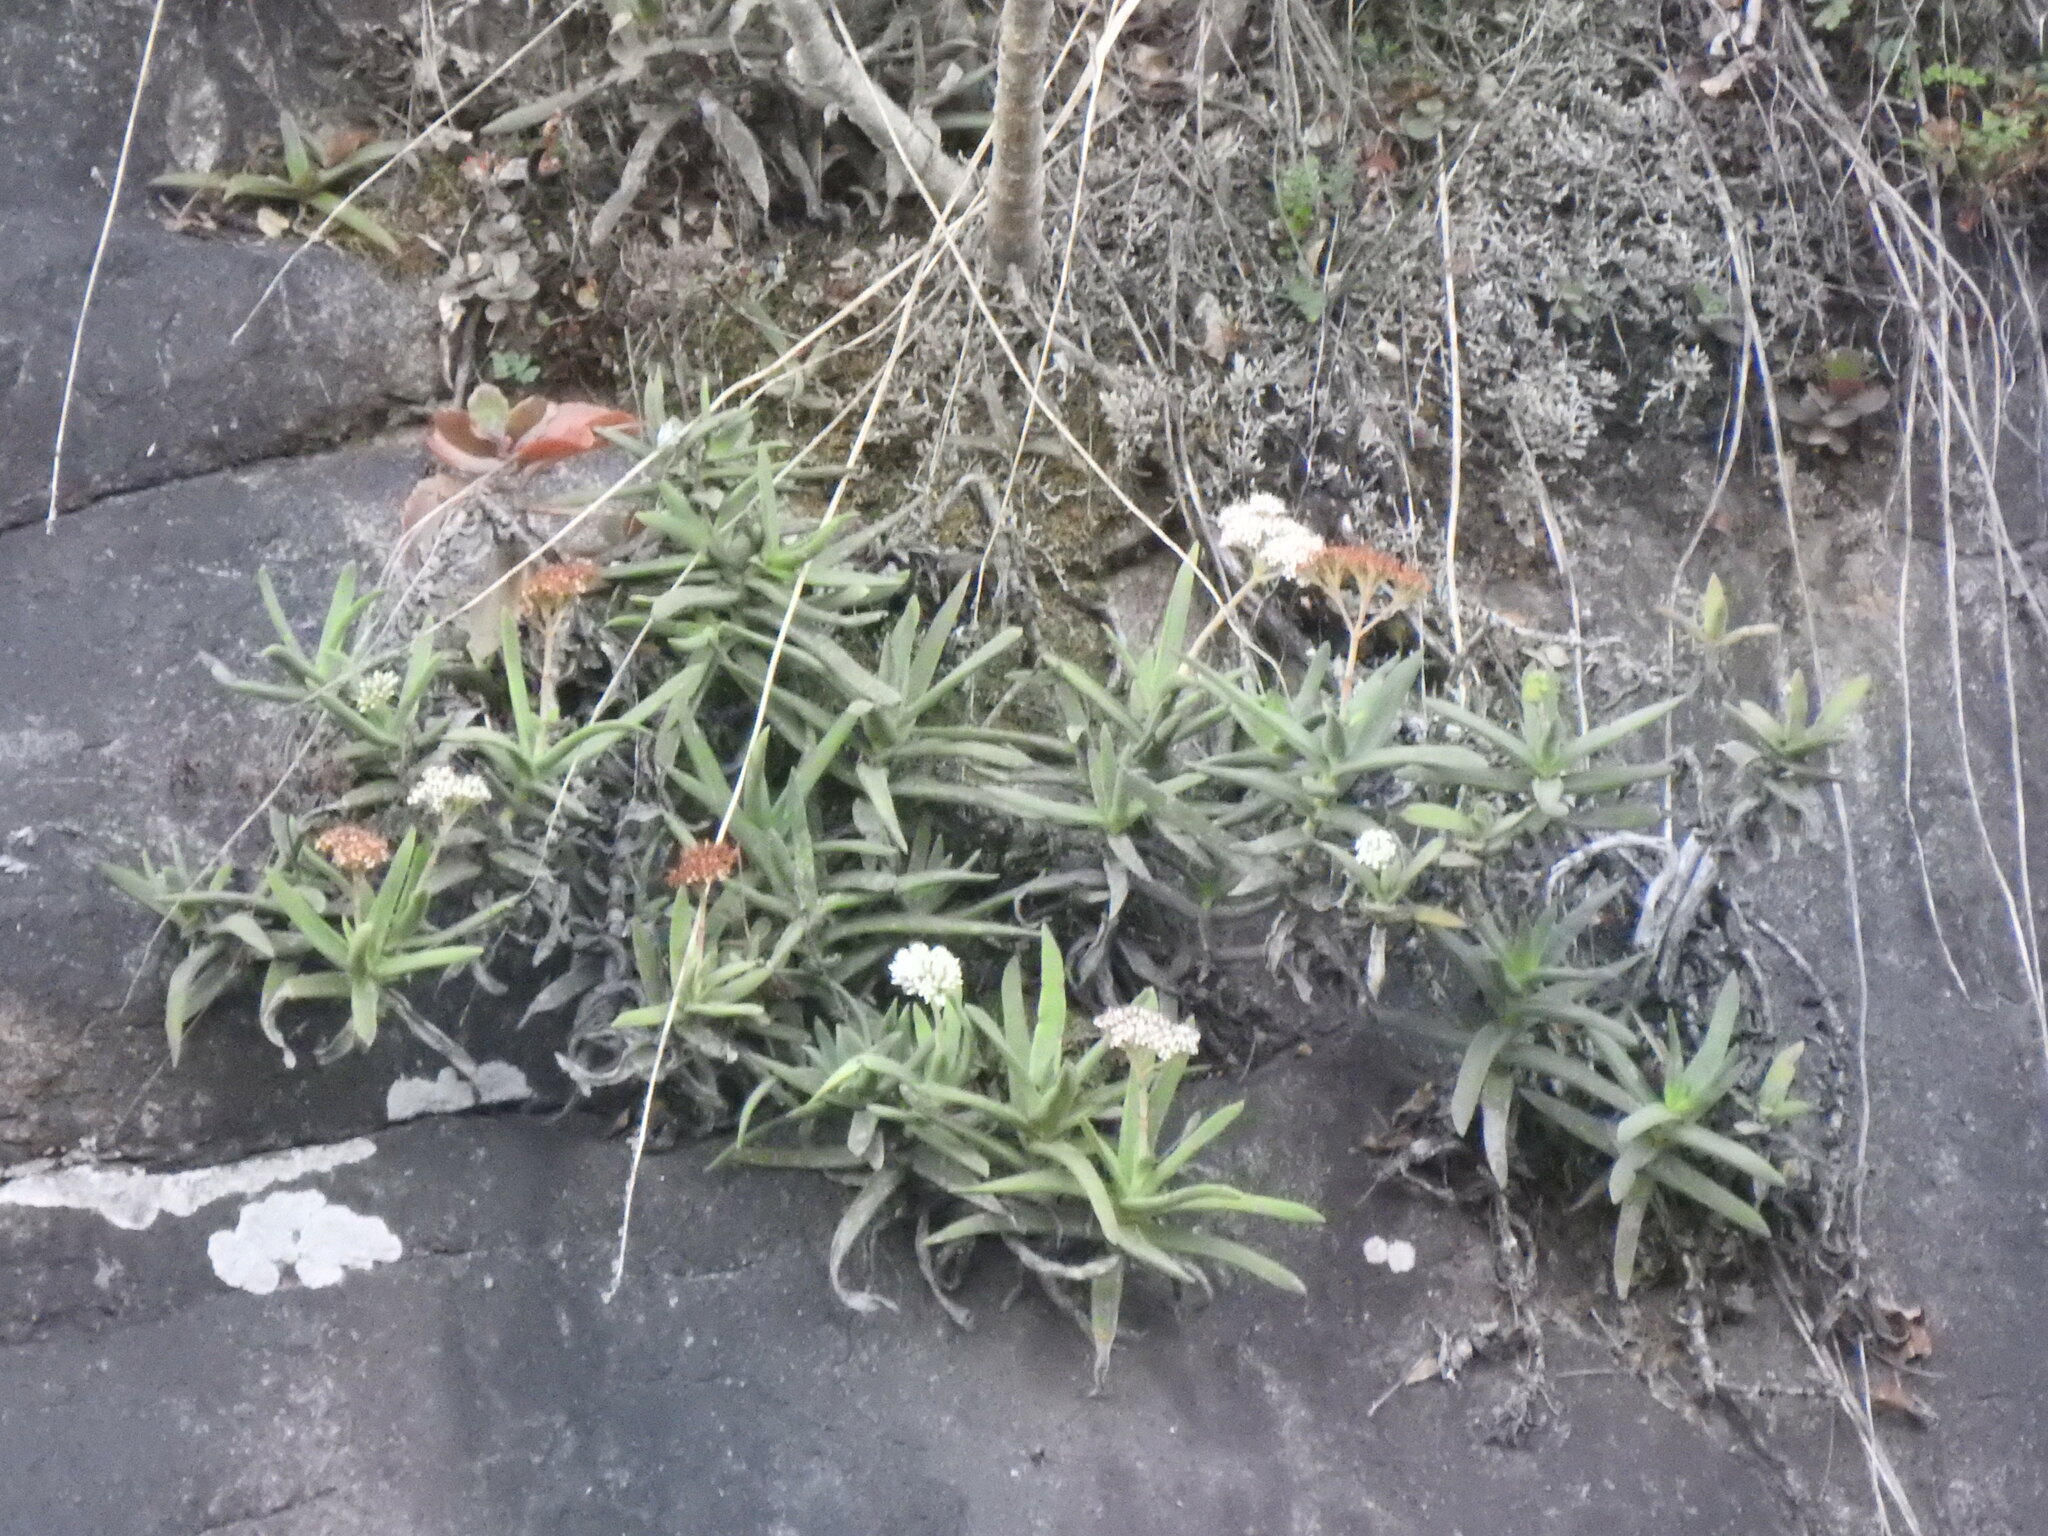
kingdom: Plantae
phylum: Tracheophyta
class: Magnoliopsida
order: Saxifragales
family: Crassulaceae
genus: Crassula
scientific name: Crassula perfoliata
